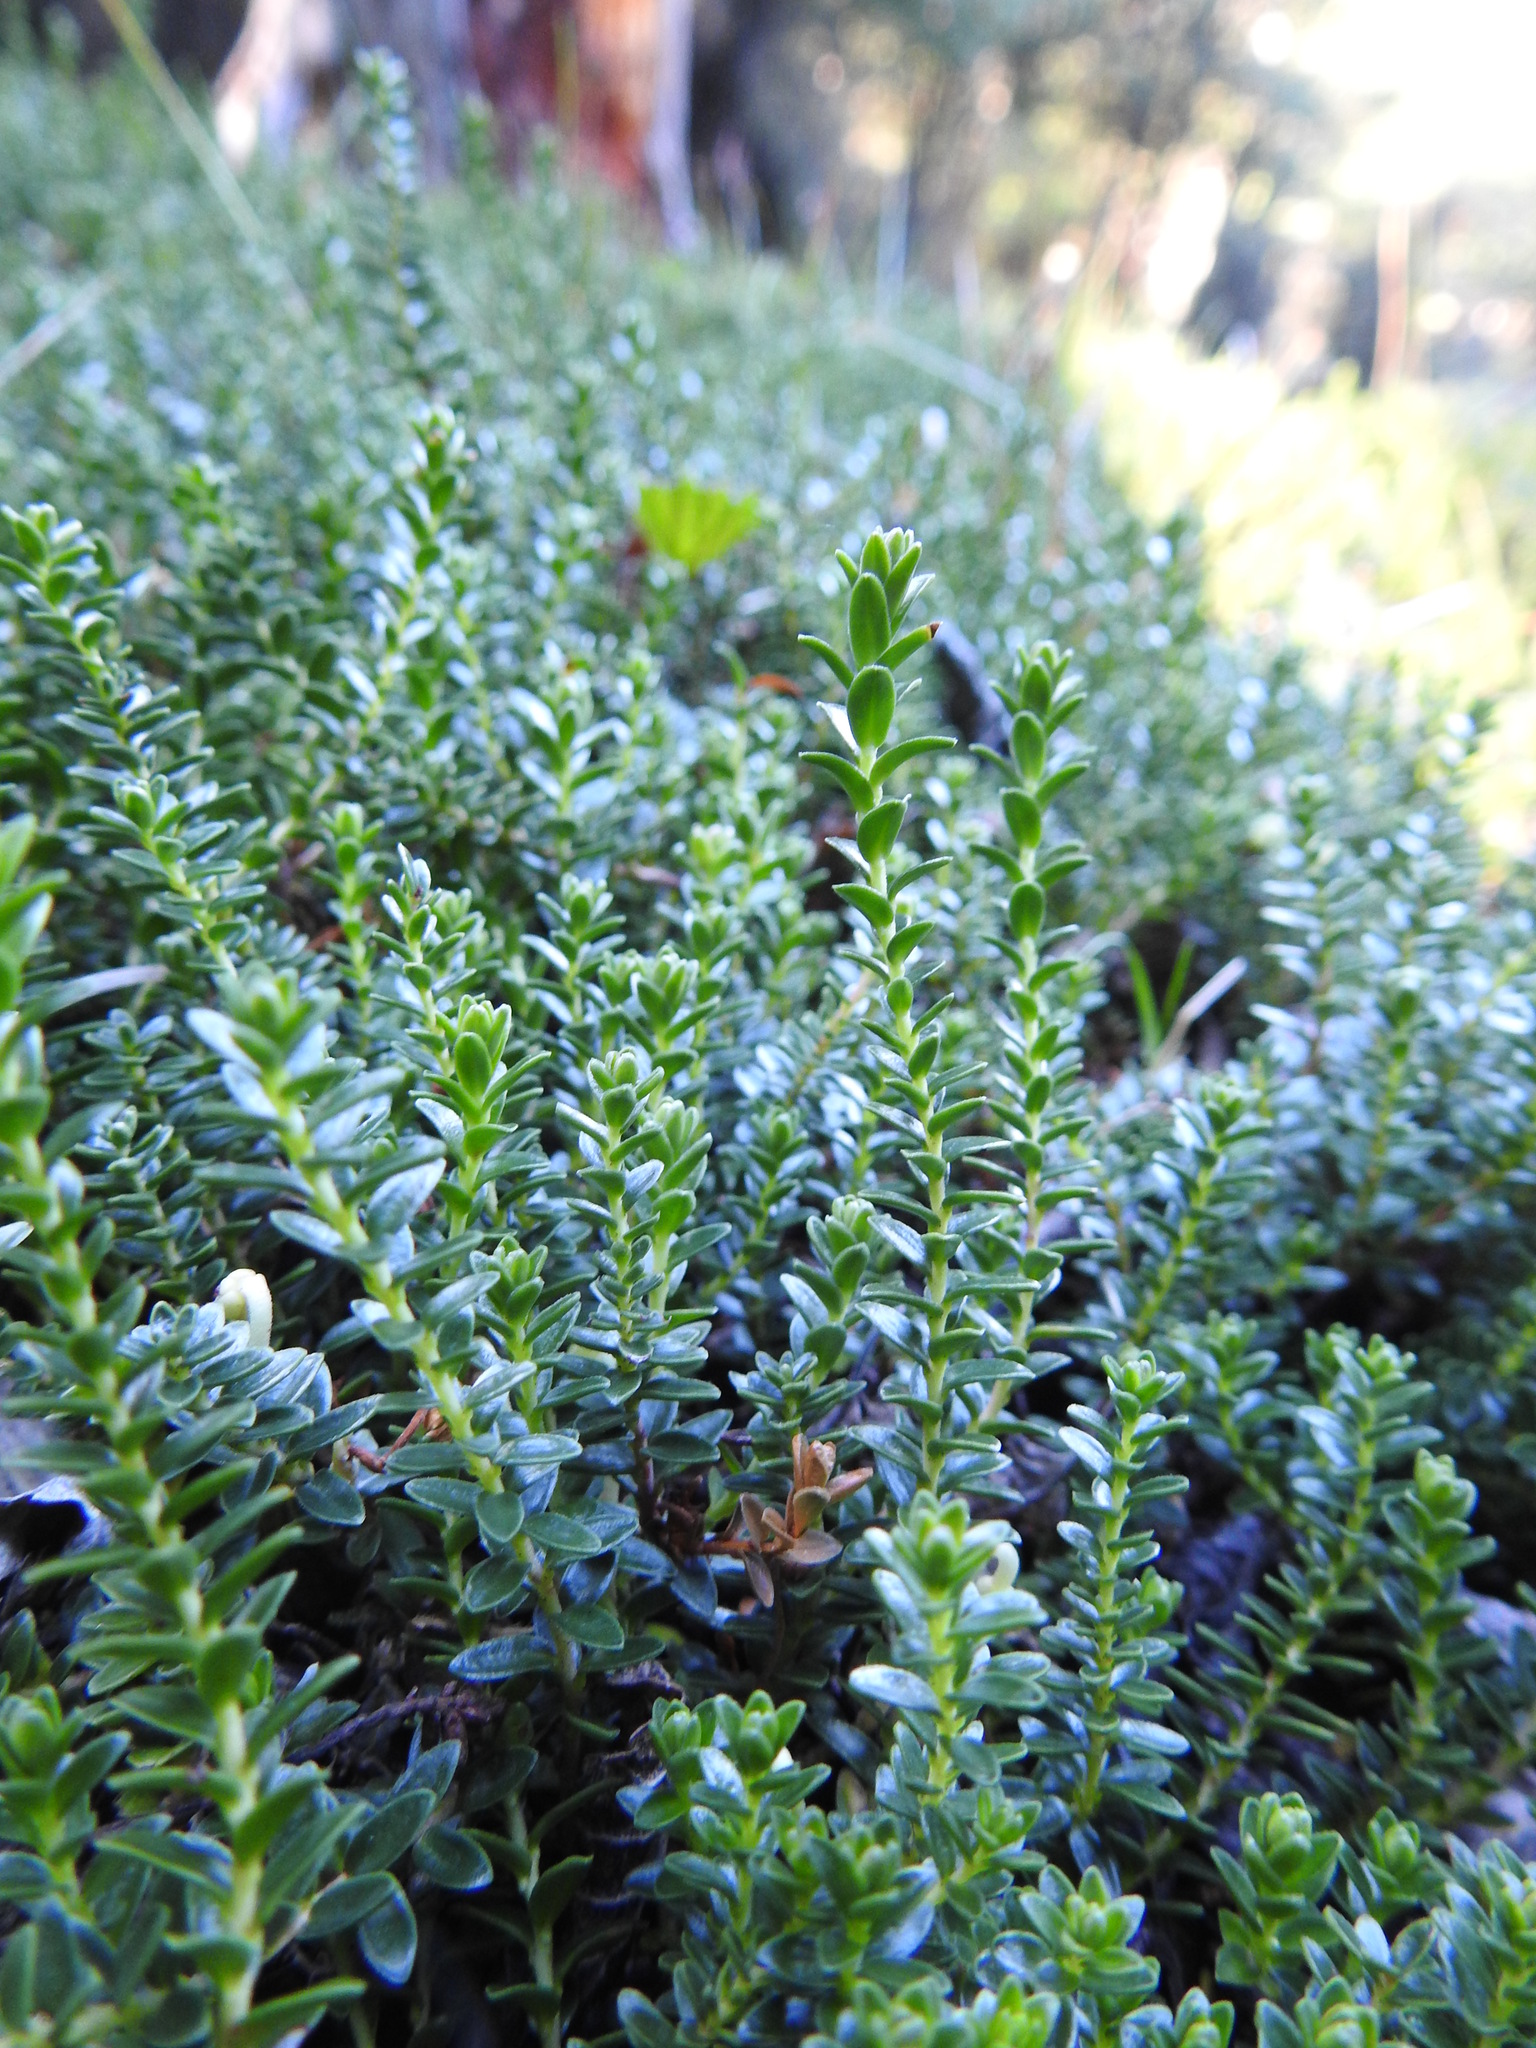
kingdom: Plantae
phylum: Tracheophyta
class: Magnoliopsida
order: Ericales
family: Ericaceae
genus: Gaultheria
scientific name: Gaultheria pumila
